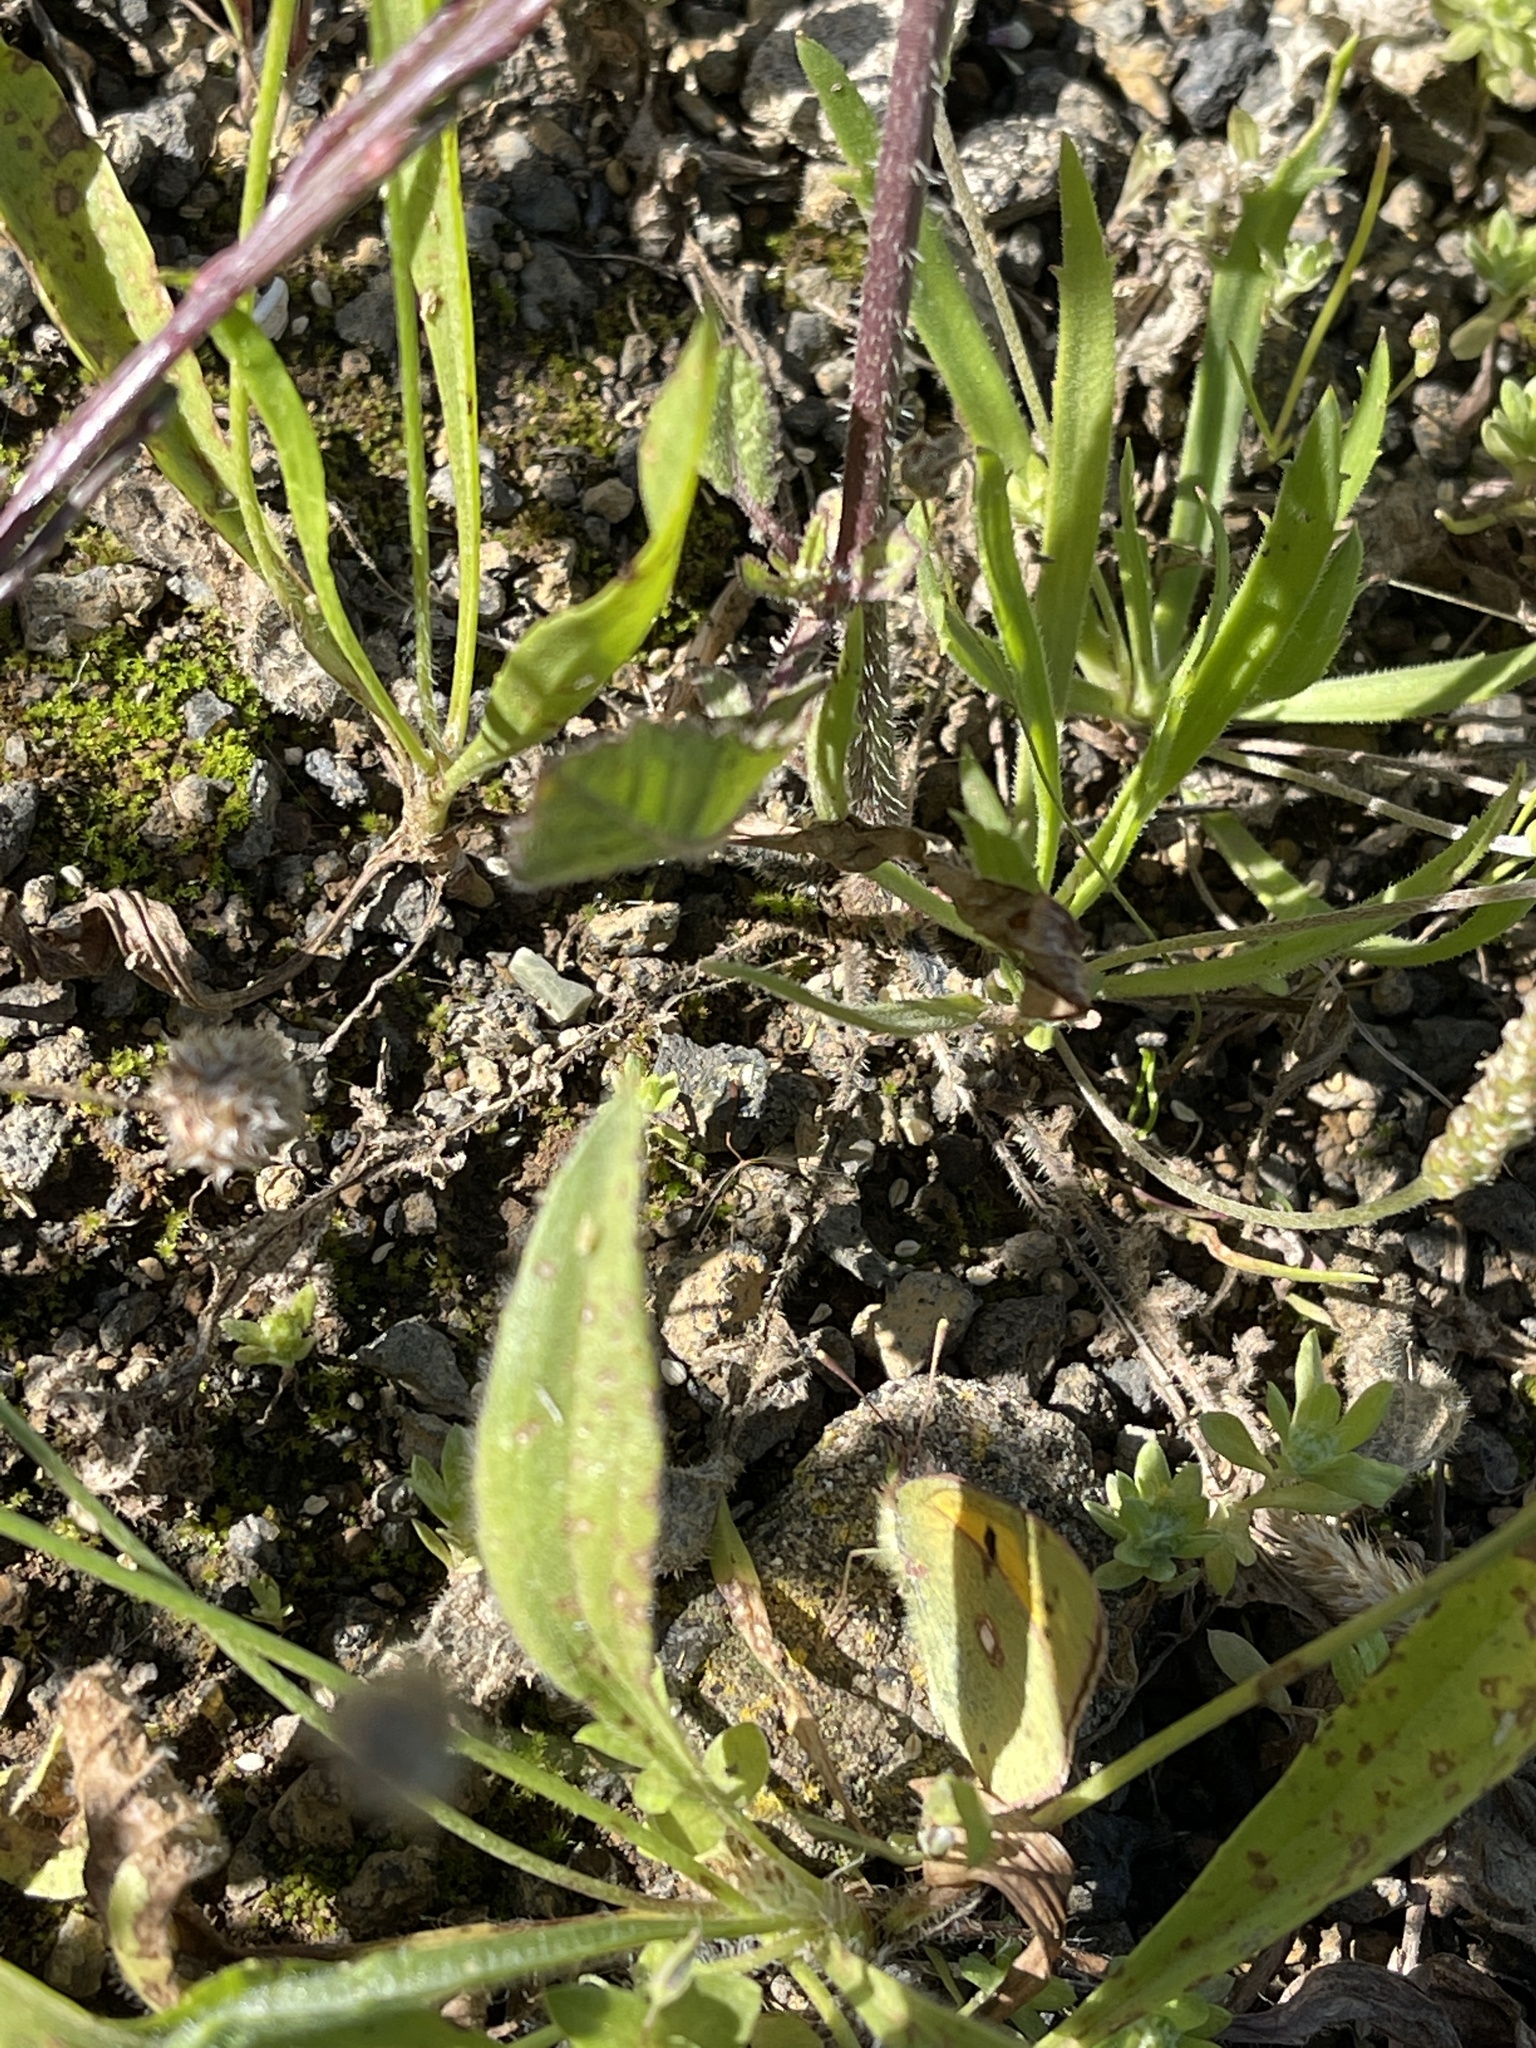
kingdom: Animalia
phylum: Arthropoda
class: Insecta
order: Lepidoptera
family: Pieridae
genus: Colias
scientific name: Colias croceus
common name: Clouded yellow
